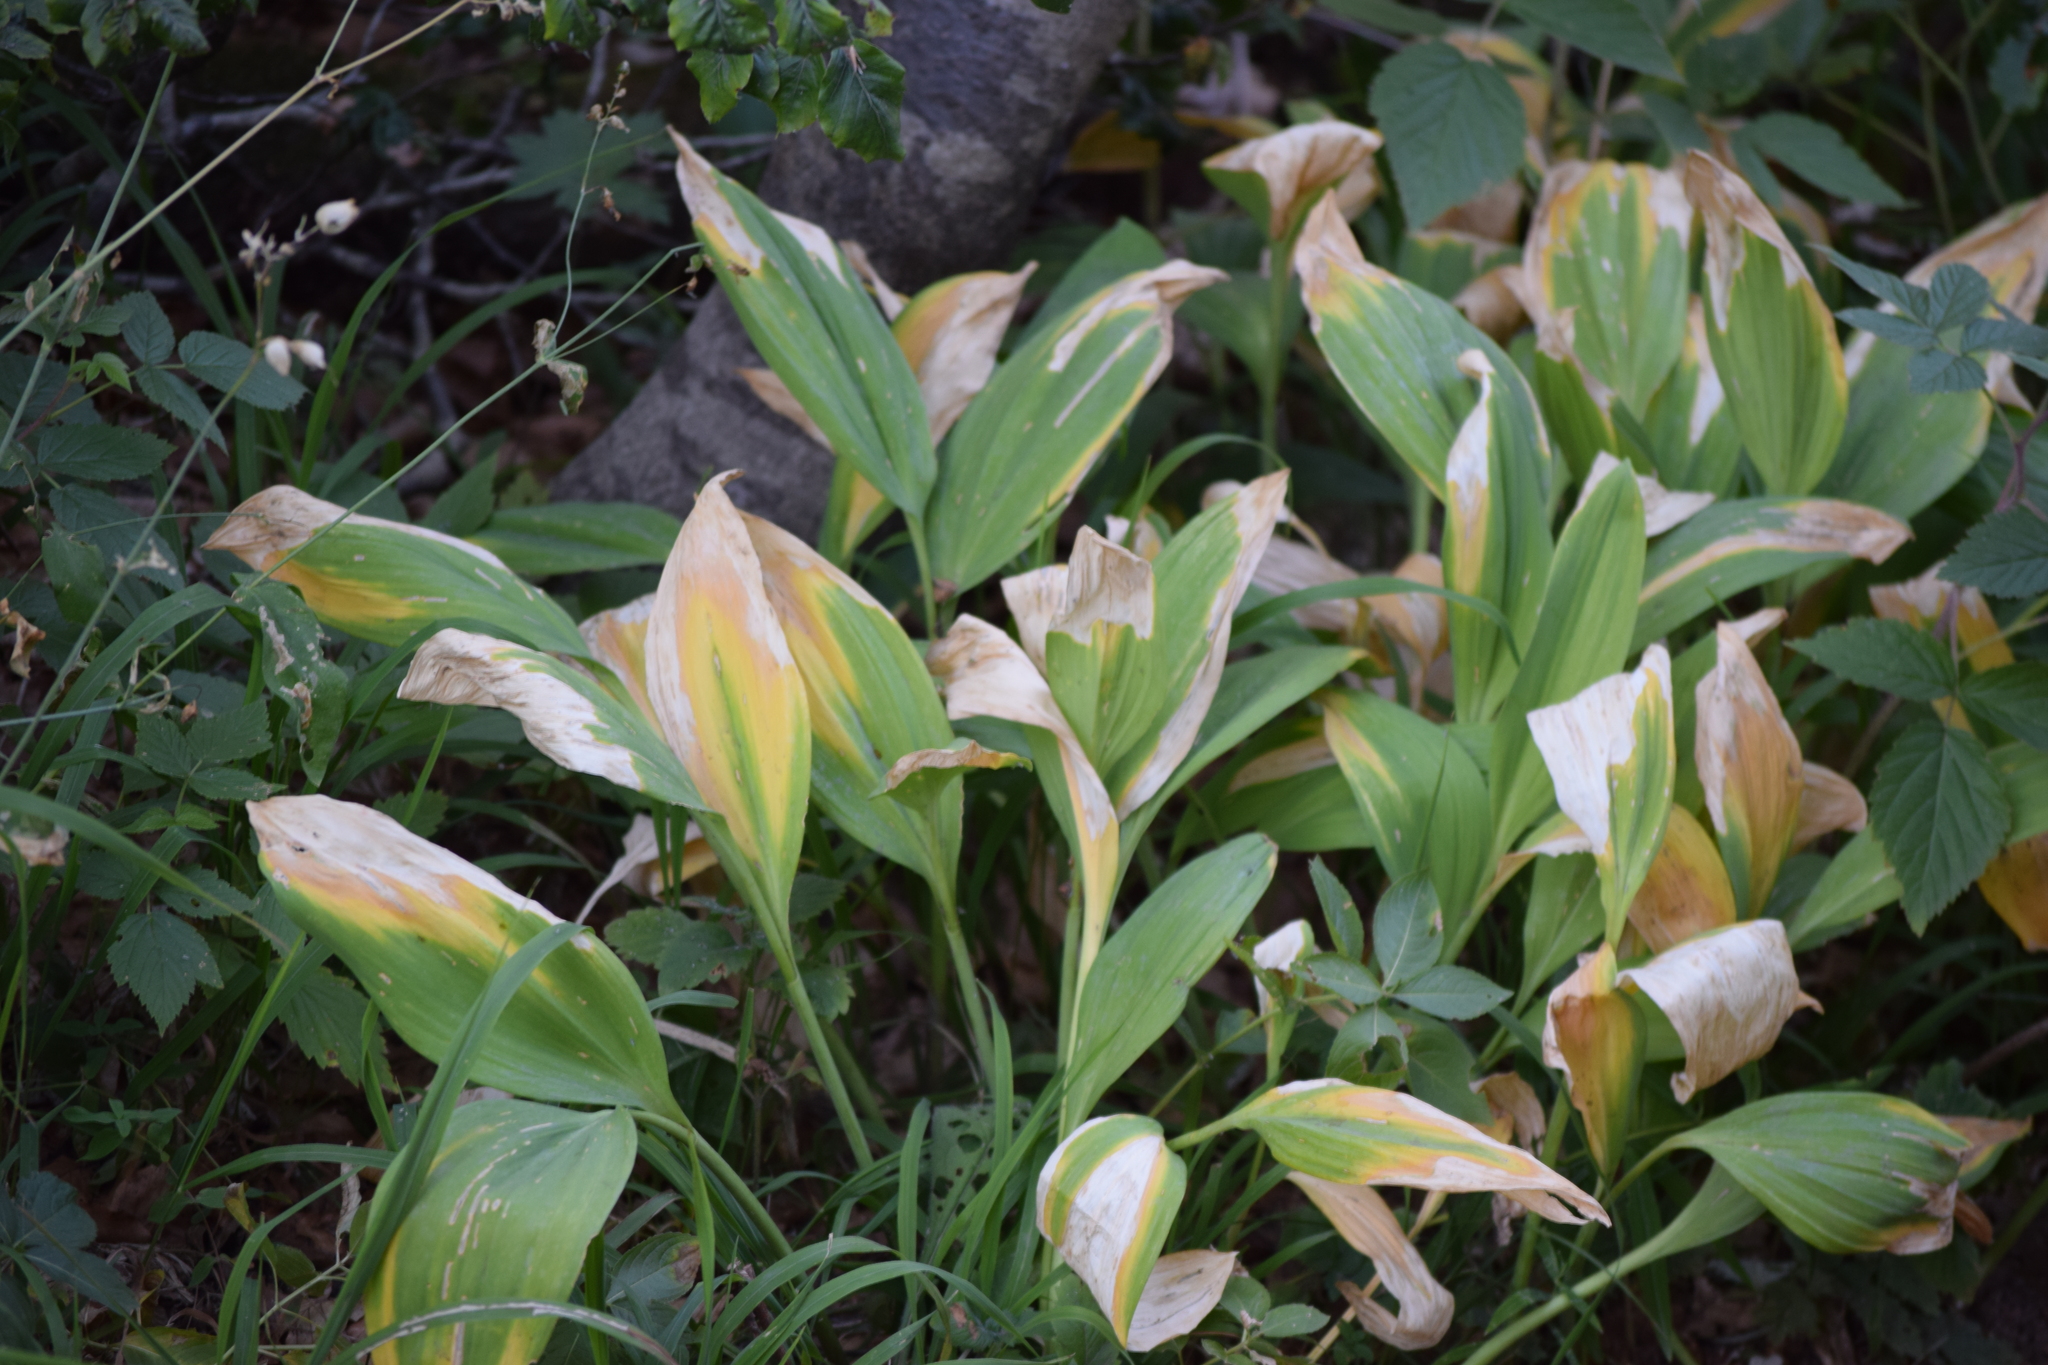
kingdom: Plantae
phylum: Tracheophyta
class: Liliopsida
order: Asparagales
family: Asparagaceae
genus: Convallaria
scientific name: Convallaria majalis
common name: Lily-of-the-valley
